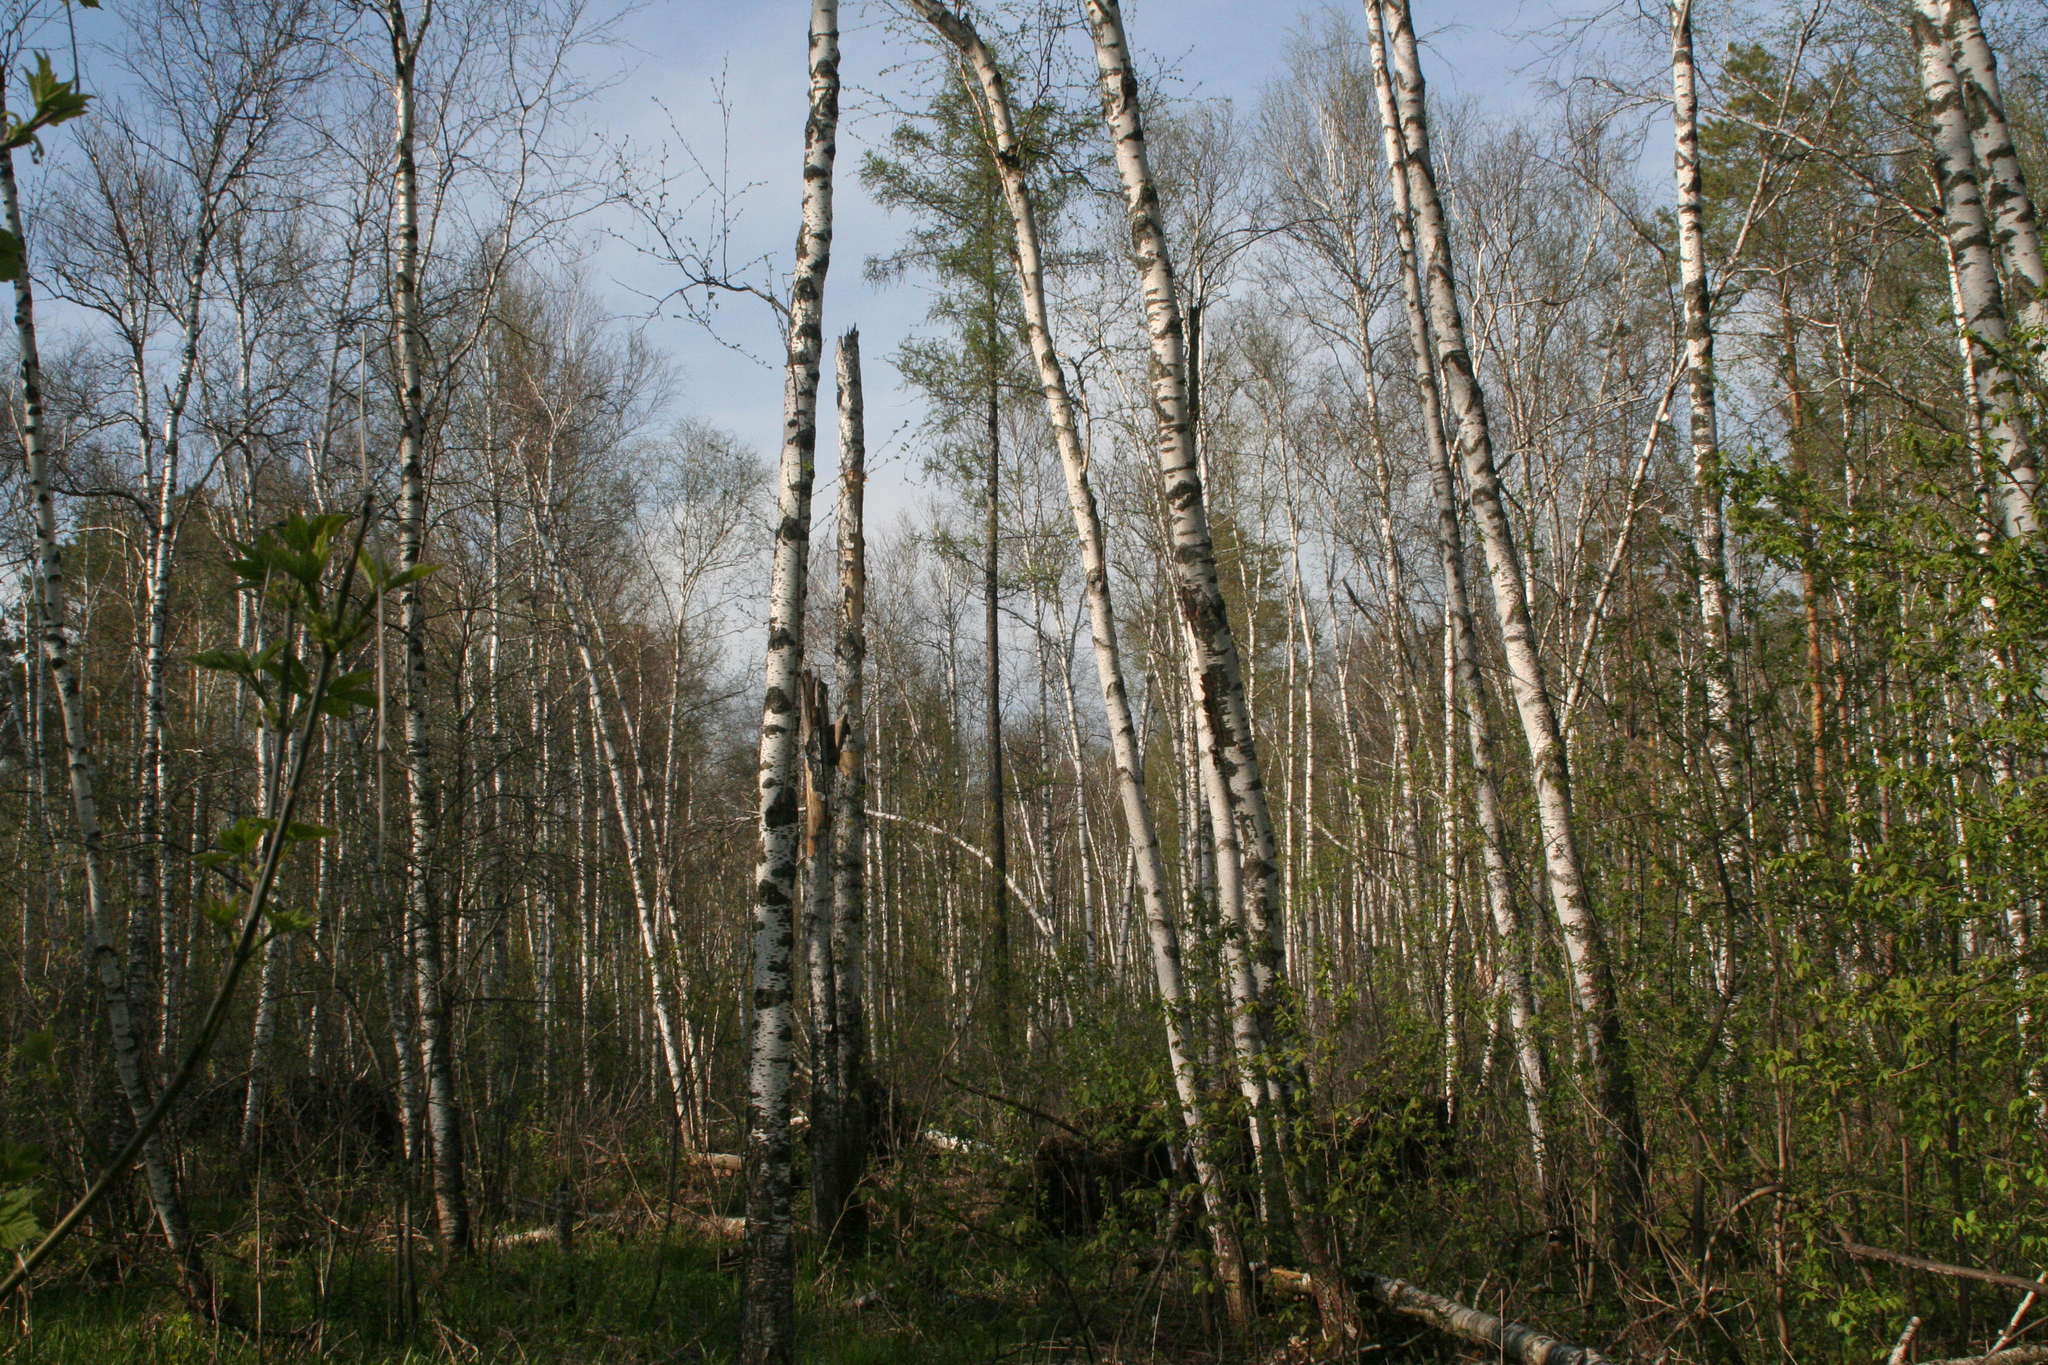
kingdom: Plantae
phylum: Tracheophyta
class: Pinopsida
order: Pinales
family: Pinaceae
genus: Larix
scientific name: Larix sibirica
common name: Siberian larch
